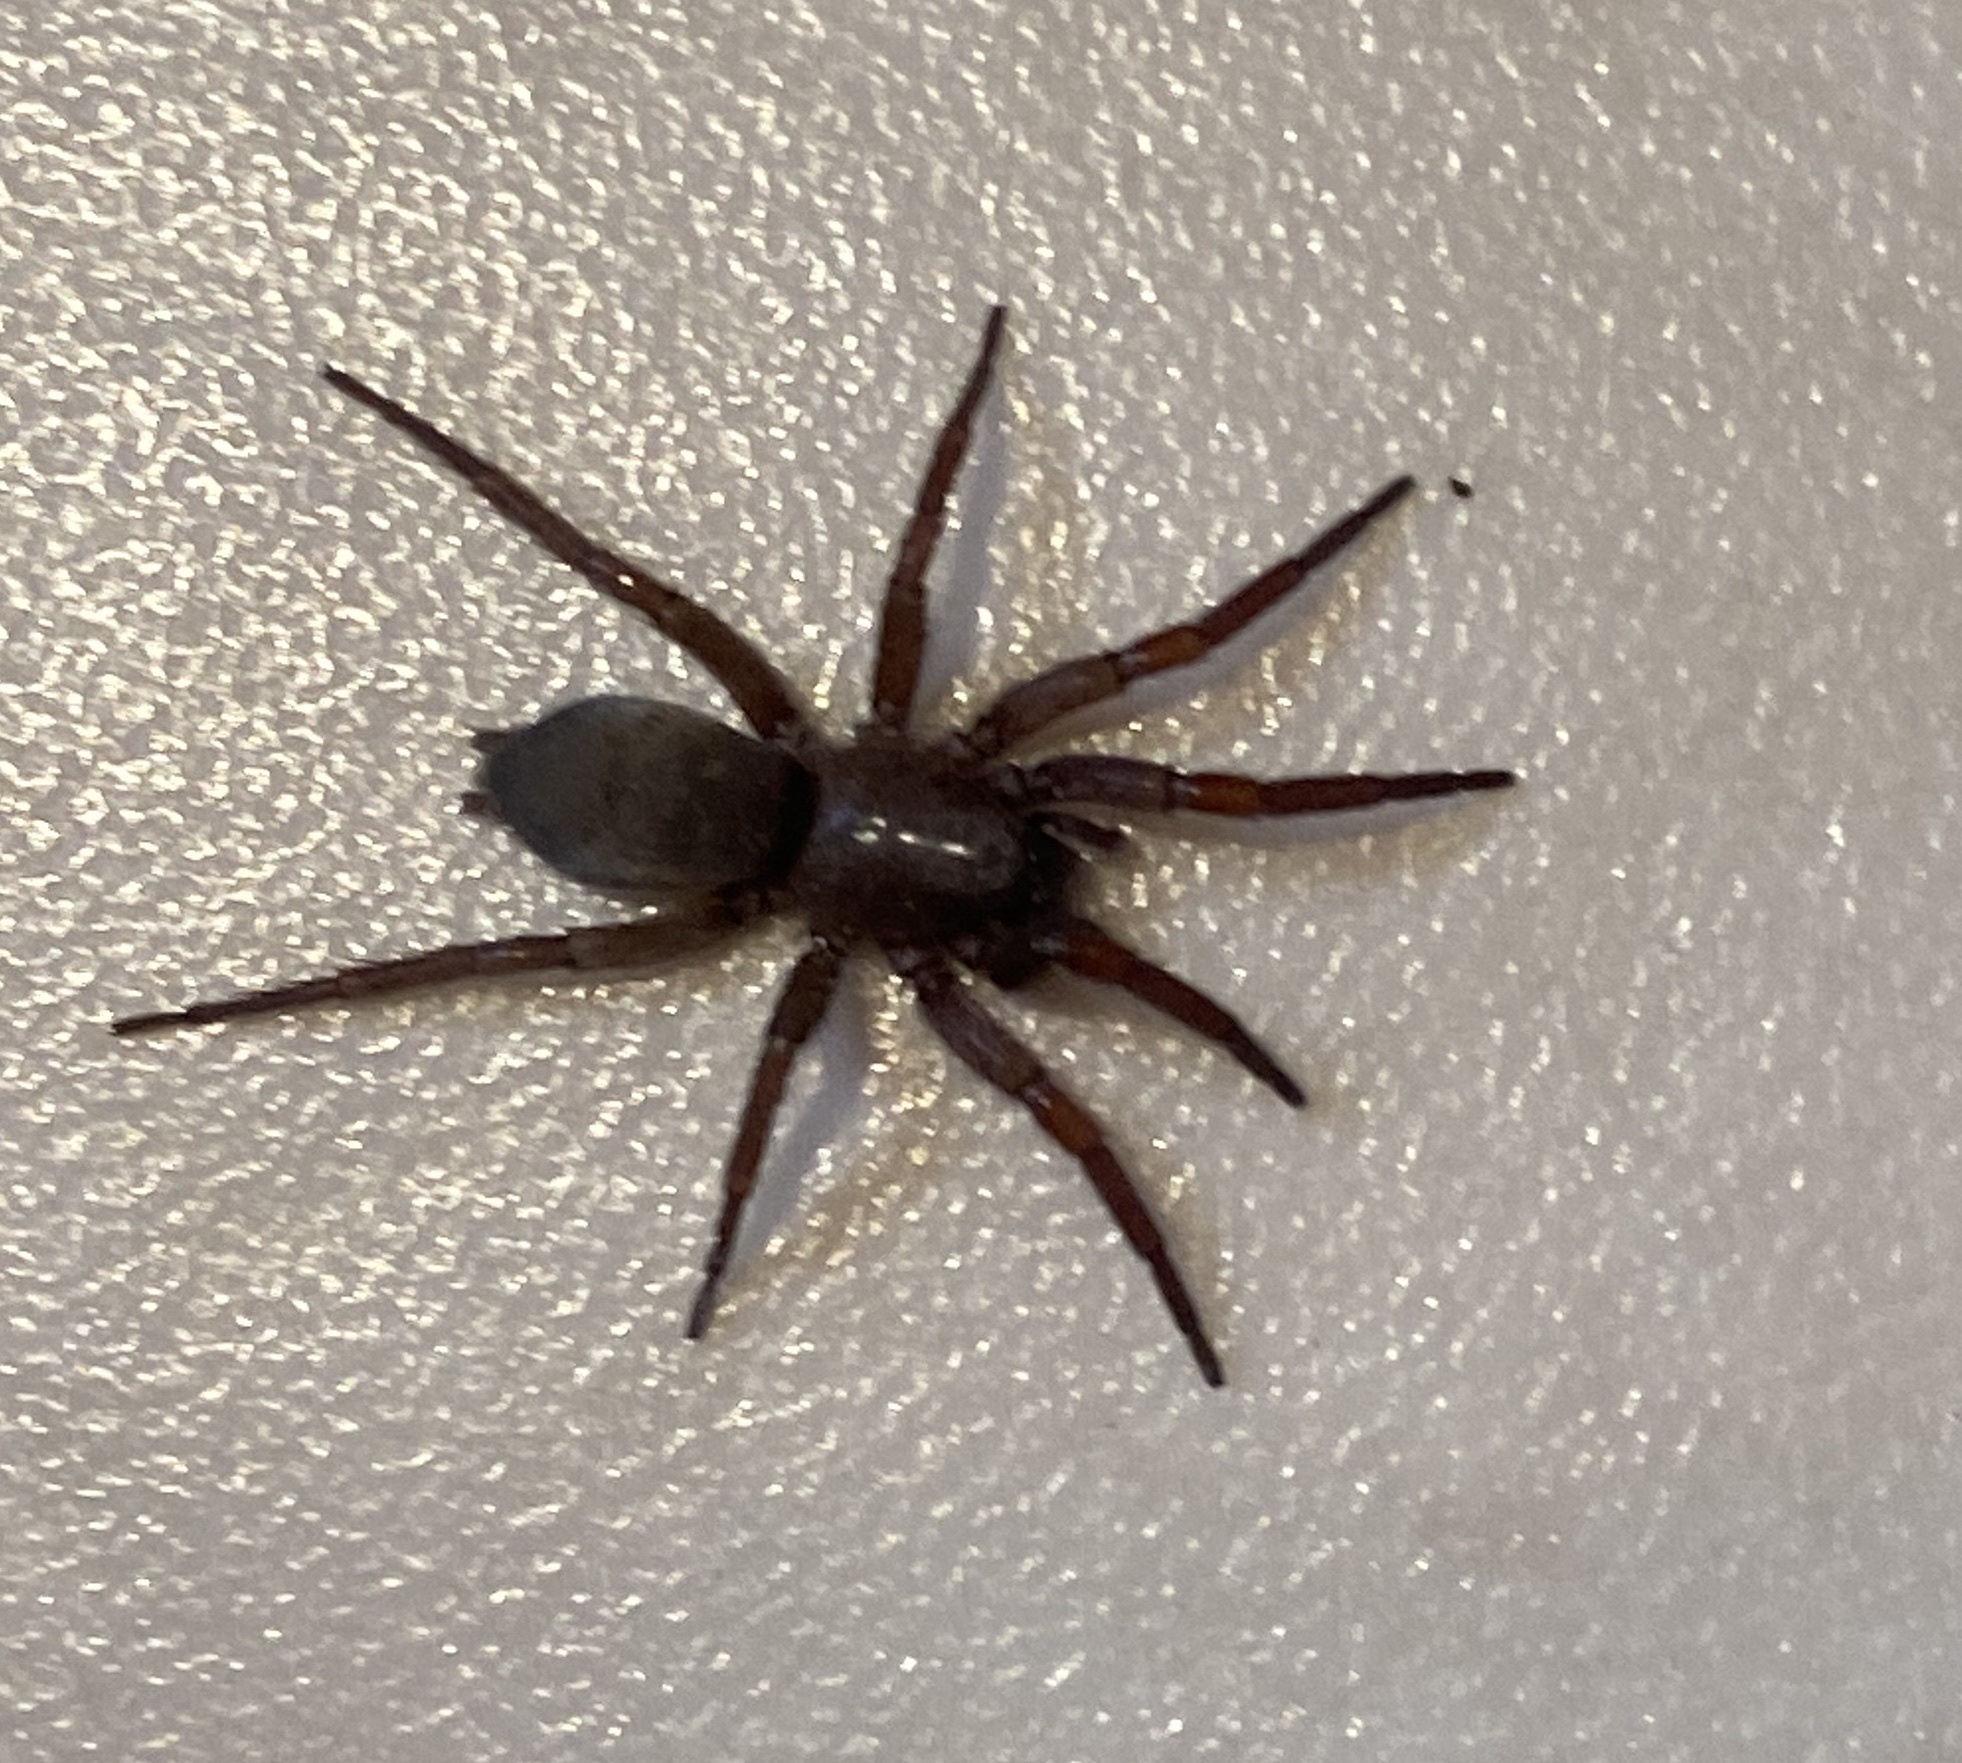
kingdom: Animalia
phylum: Arthropoda
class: Arachnida
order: Araneae
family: Gnaphosidae
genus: Scotophaeus
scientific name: Scotophaeus blackwalli
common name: Mouse spider
